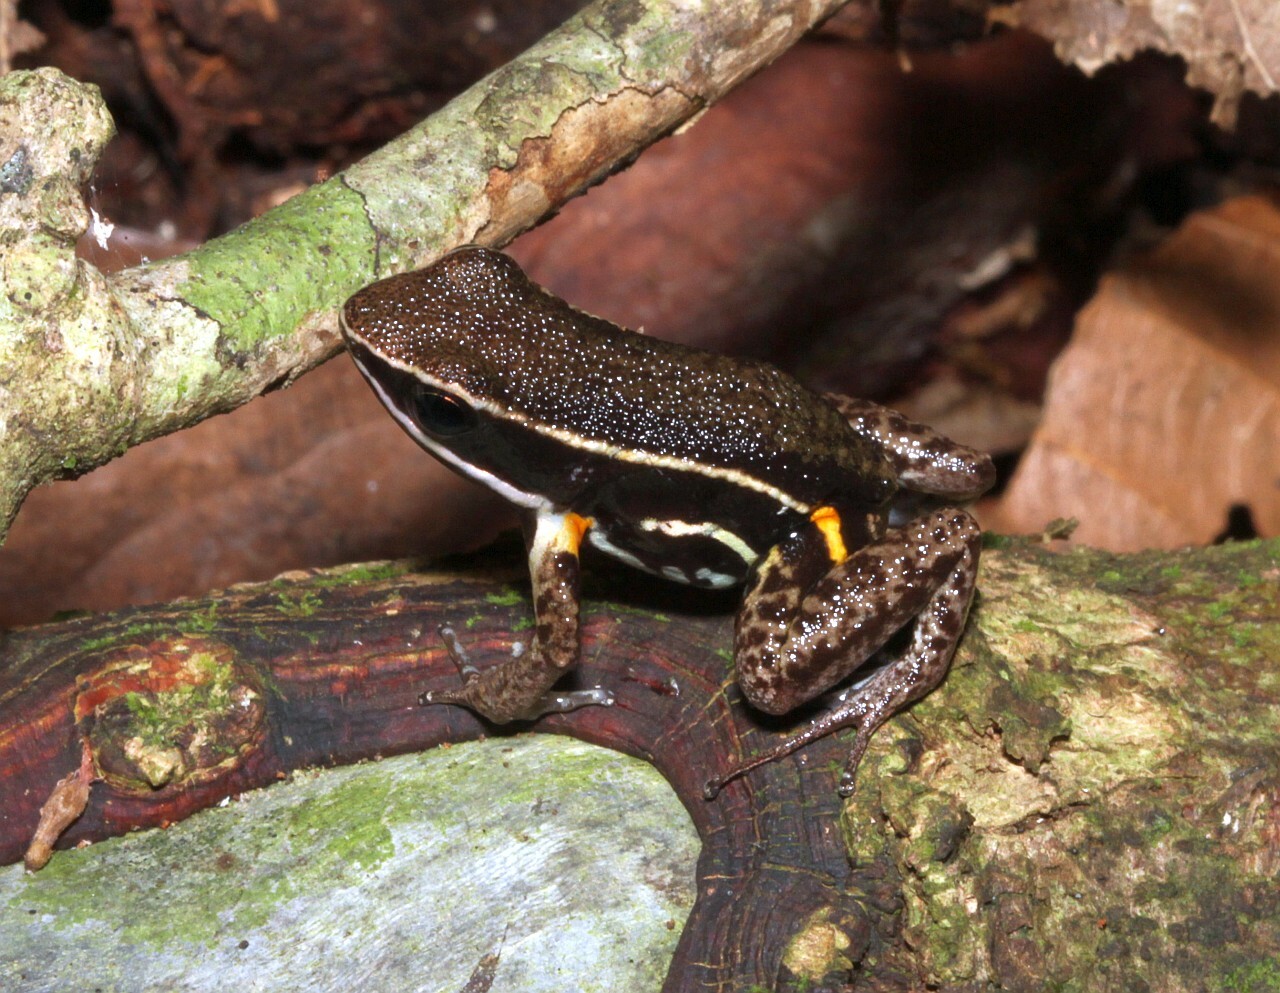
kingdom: Animalia
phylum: Chordata
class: Amphibia
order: Anura
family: Aromobatidae
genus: Allobates
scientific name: Allobates femoralis
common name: Brilliant-thighed poison frog
